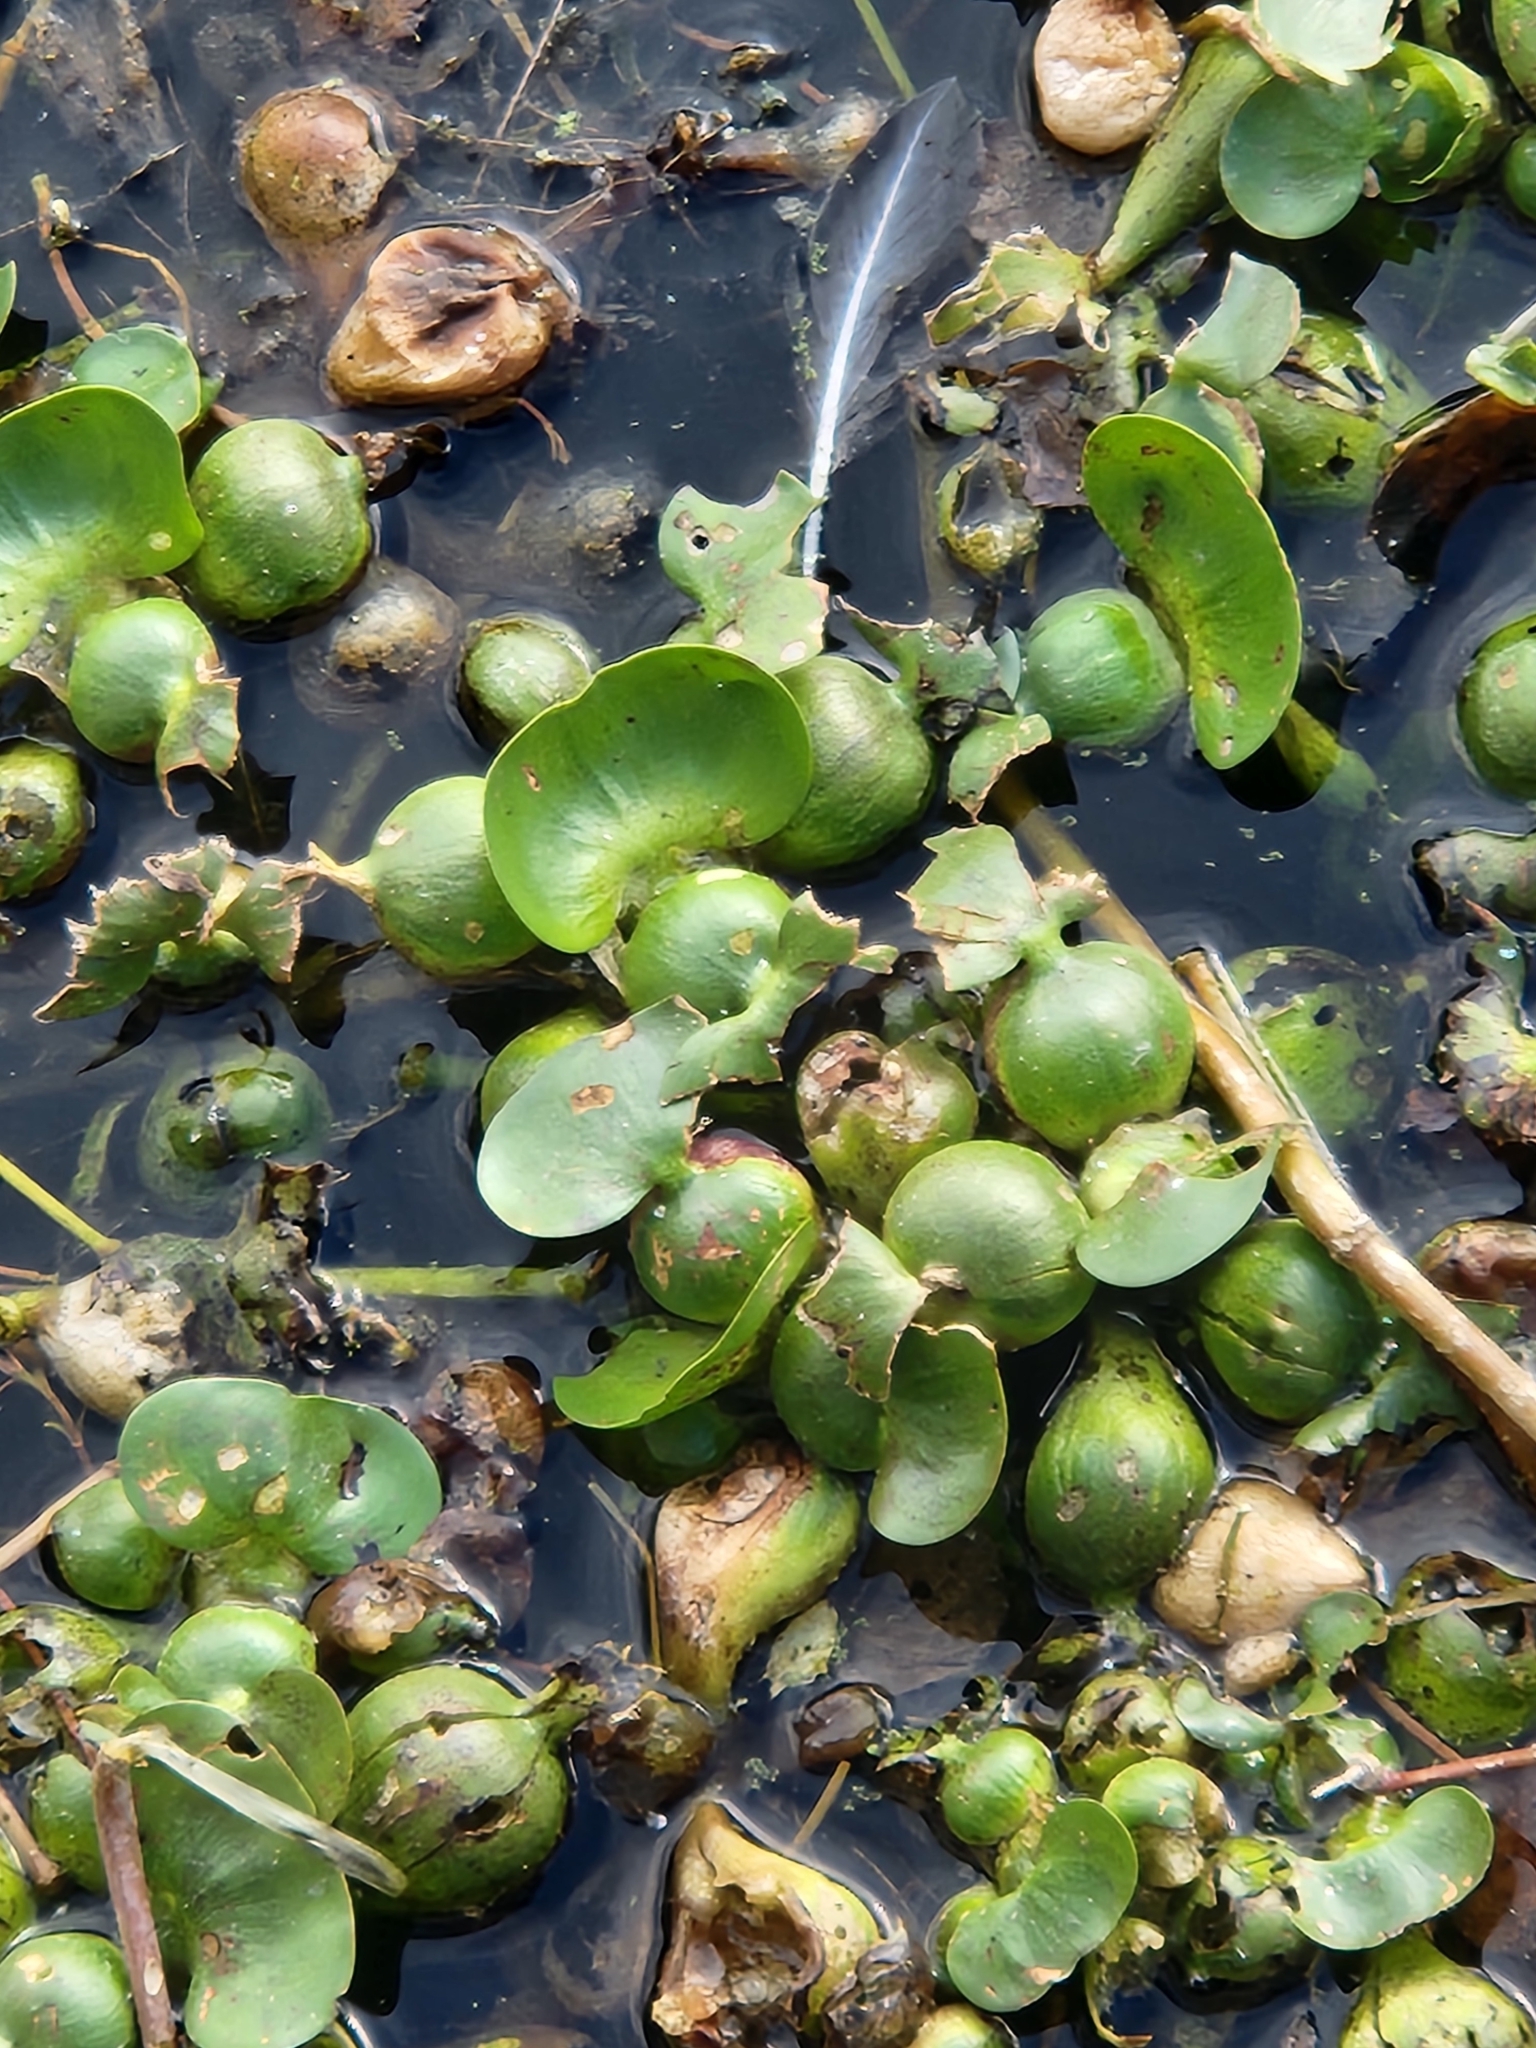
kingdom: Plantae
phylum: Tracheophyta
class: Liliopsida
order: Commelinales
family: Pontederiaceae
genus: Pontederia
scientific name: Pontederia crassipes
